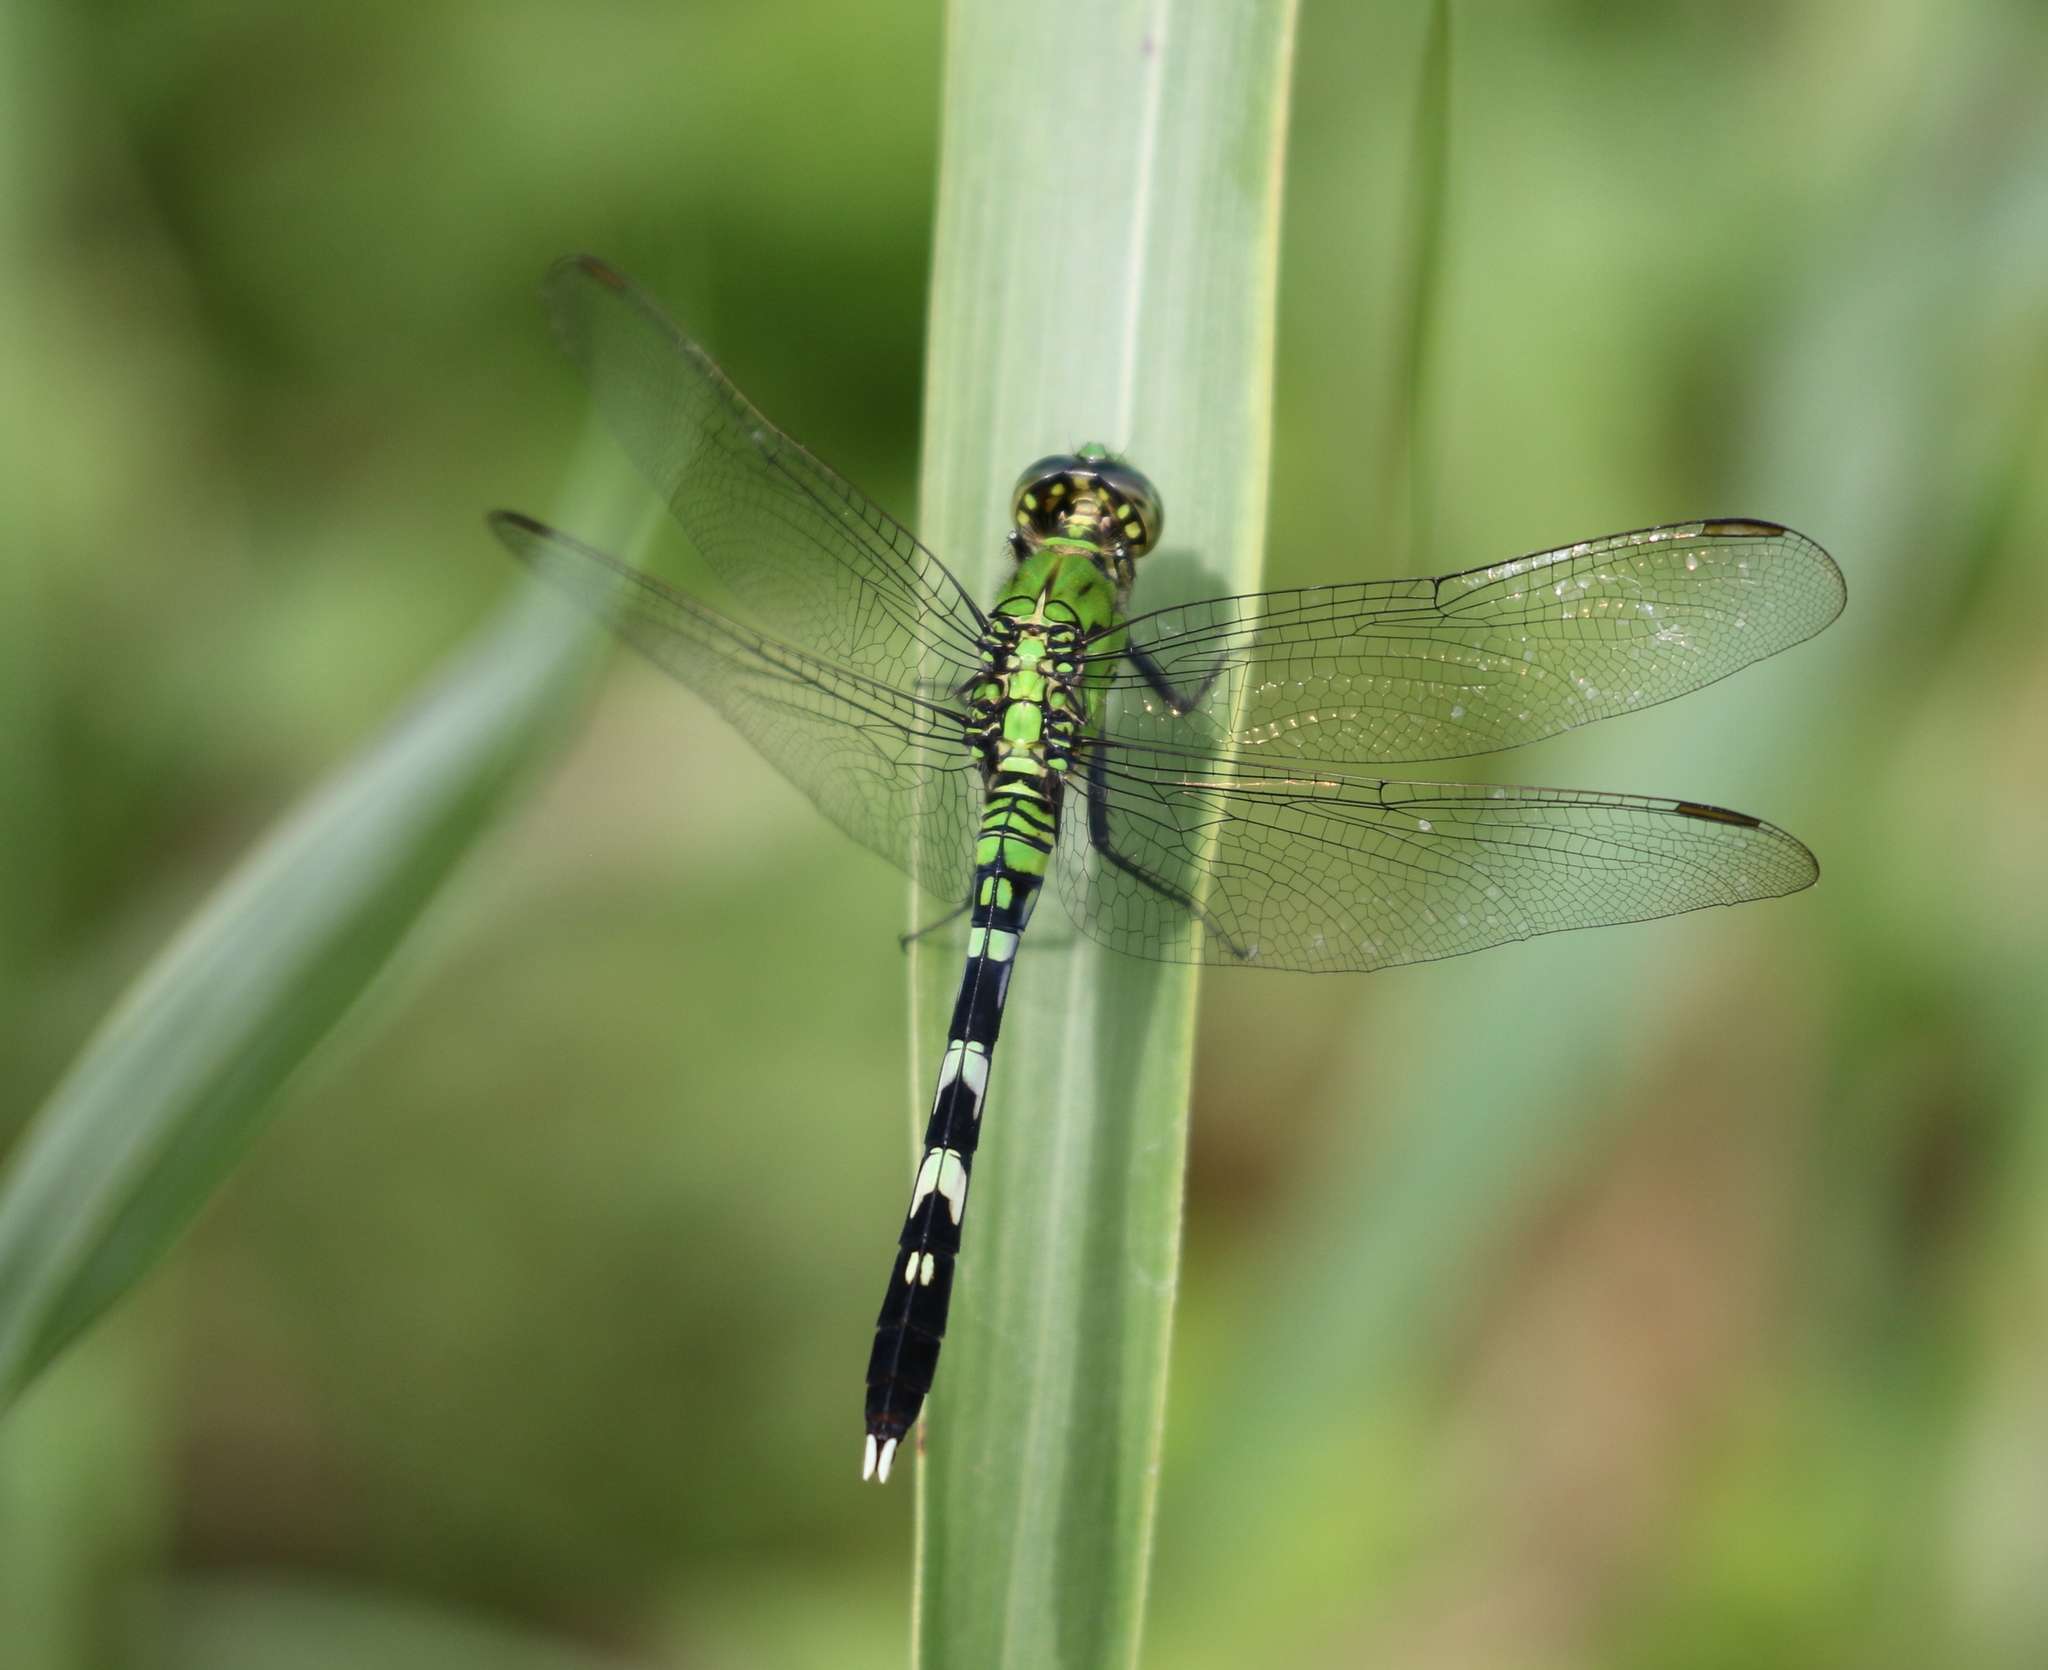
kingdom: Animalia
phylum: Arthropoda
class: Insecta
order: Odonata
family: Libellulidae
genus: Erythemis
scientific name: Erythemis simplicicollis
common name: Eastern pondhawk
